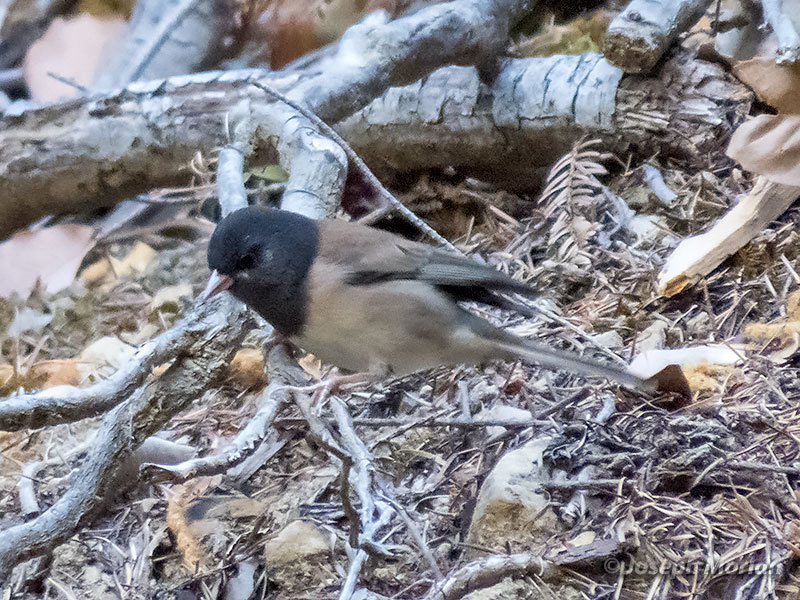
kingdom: Animalia
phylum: Chordata
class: Aves
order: Passeriformes
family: Passerellidae
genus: Junco
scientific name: Junco hyemalis
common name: Dark-eyed junco
